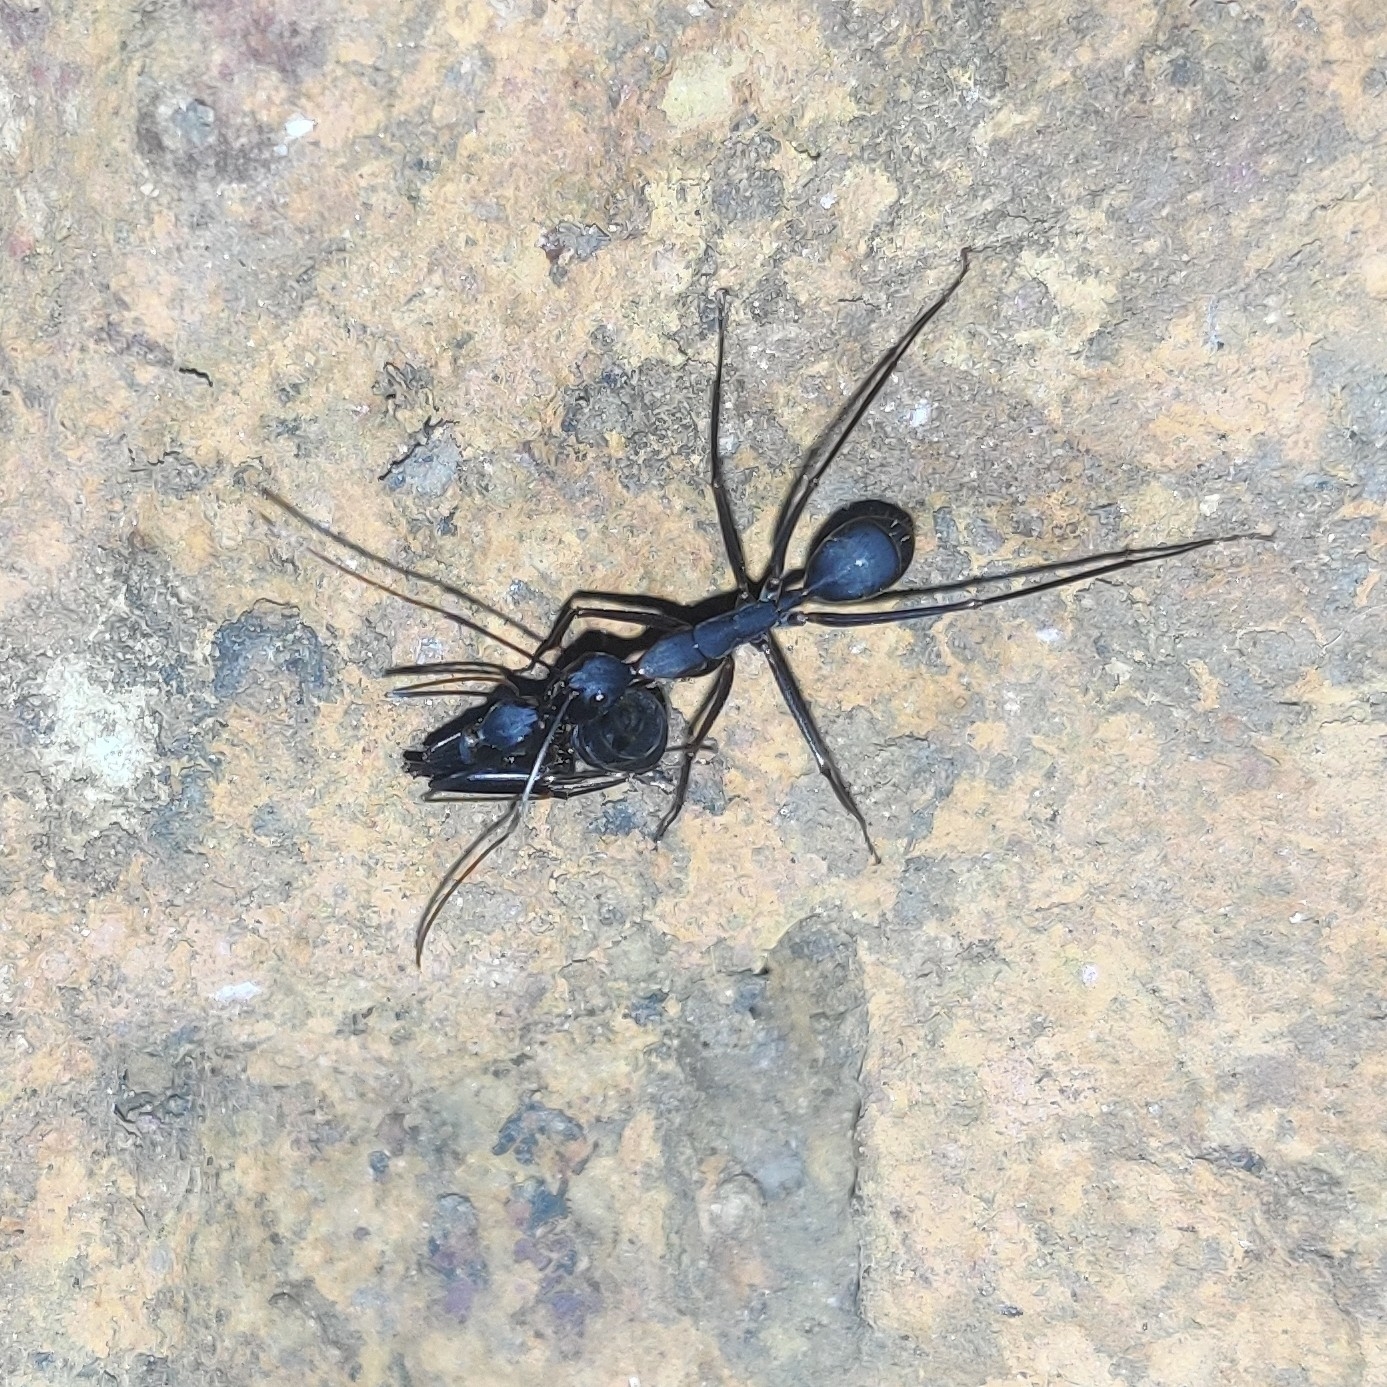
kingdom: Animalia
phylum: Arthropoda
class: Insecta
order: Hymenoptera
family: Formicidae
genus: Camponotus
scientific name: Camponotus angusticollis
